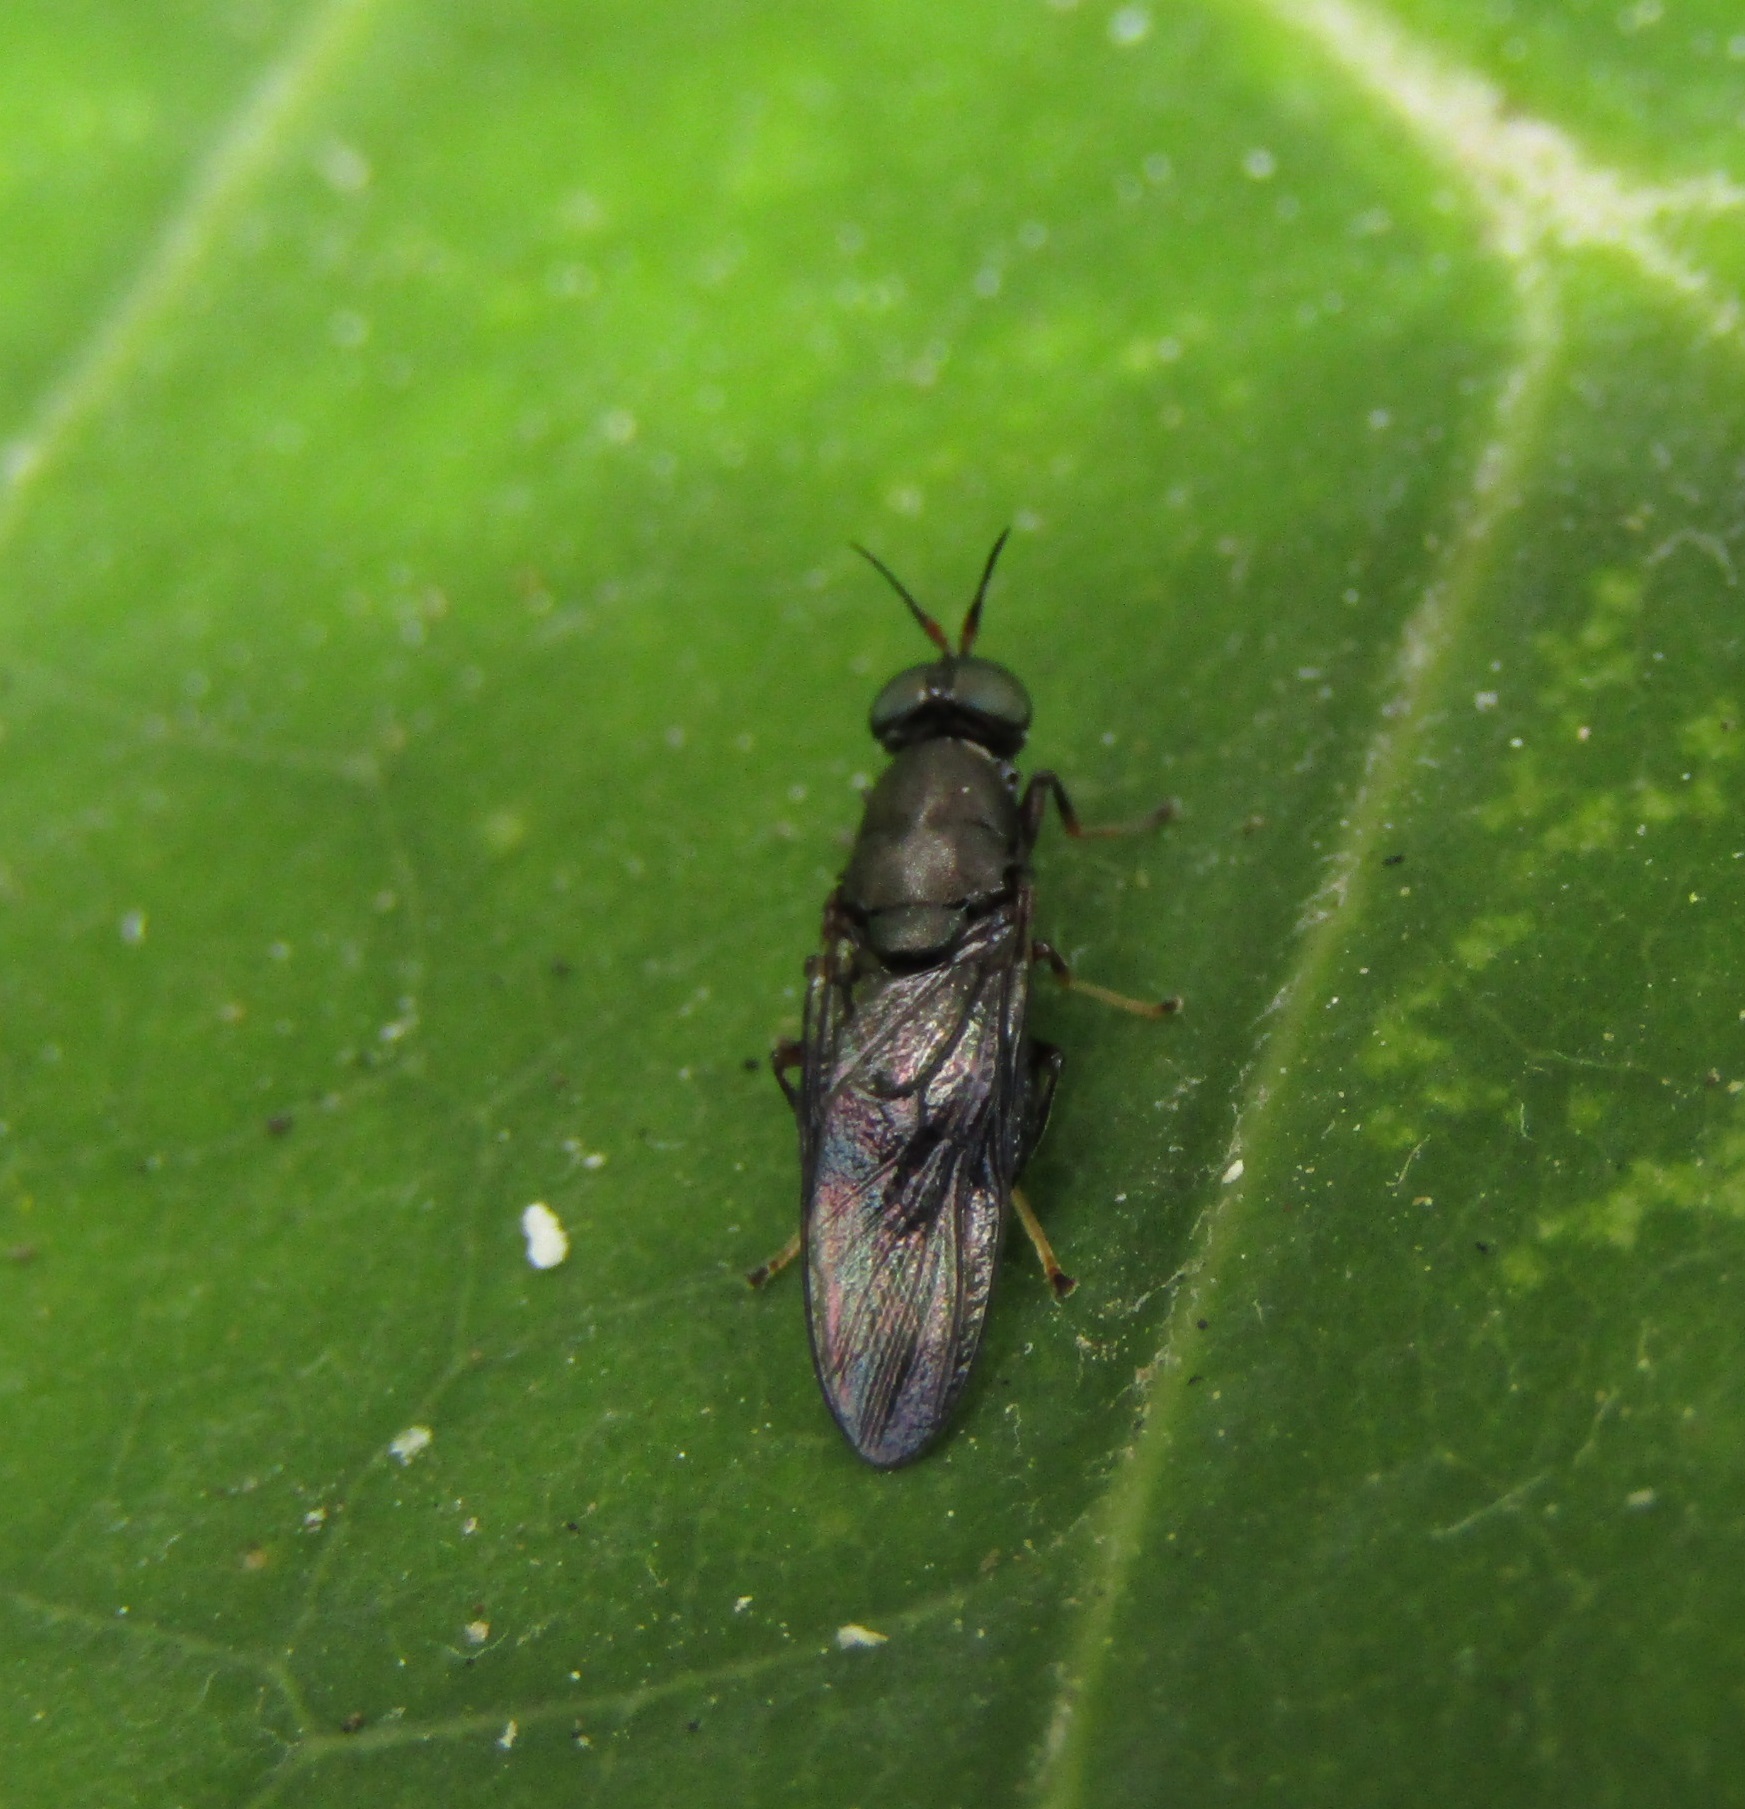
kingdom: Animalia
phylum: Arthropoda
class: Insecta
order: Diptera
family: Stratiomyidae
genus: Dysbiota
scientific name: Dysbiota peregrina
